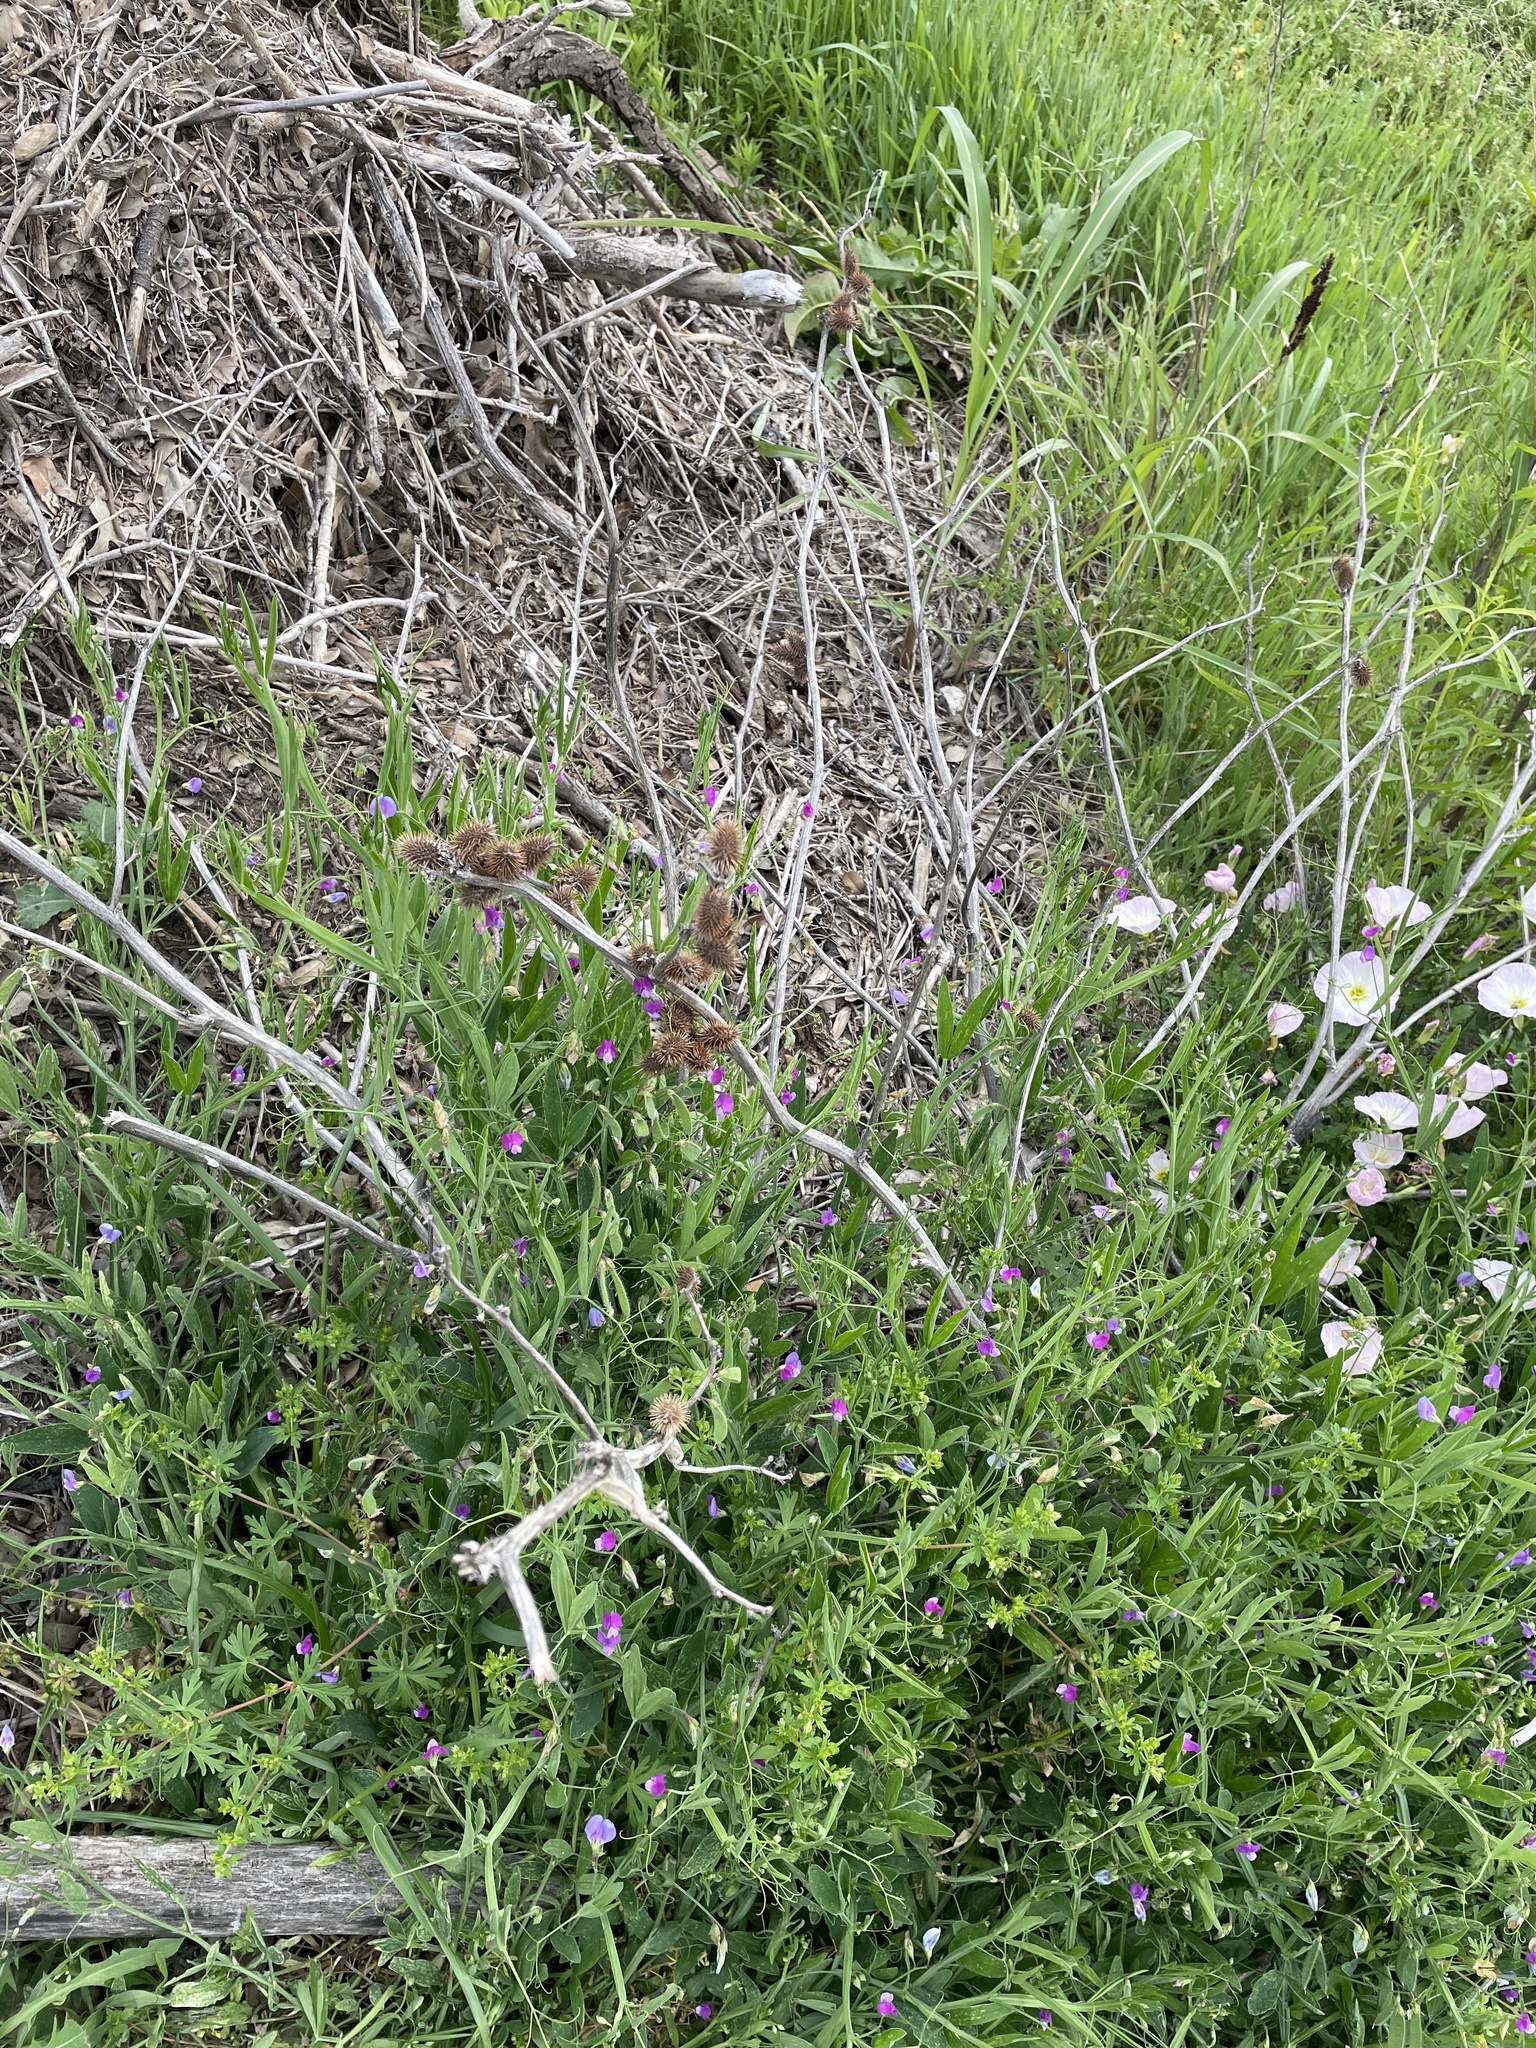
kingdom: Plantae
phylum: Tracheophyta
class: Magnoliopsida
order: Asterales
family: Asteraceae
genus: Xanthium
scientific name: Xanthium strumarium
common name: Rough cocklebur
